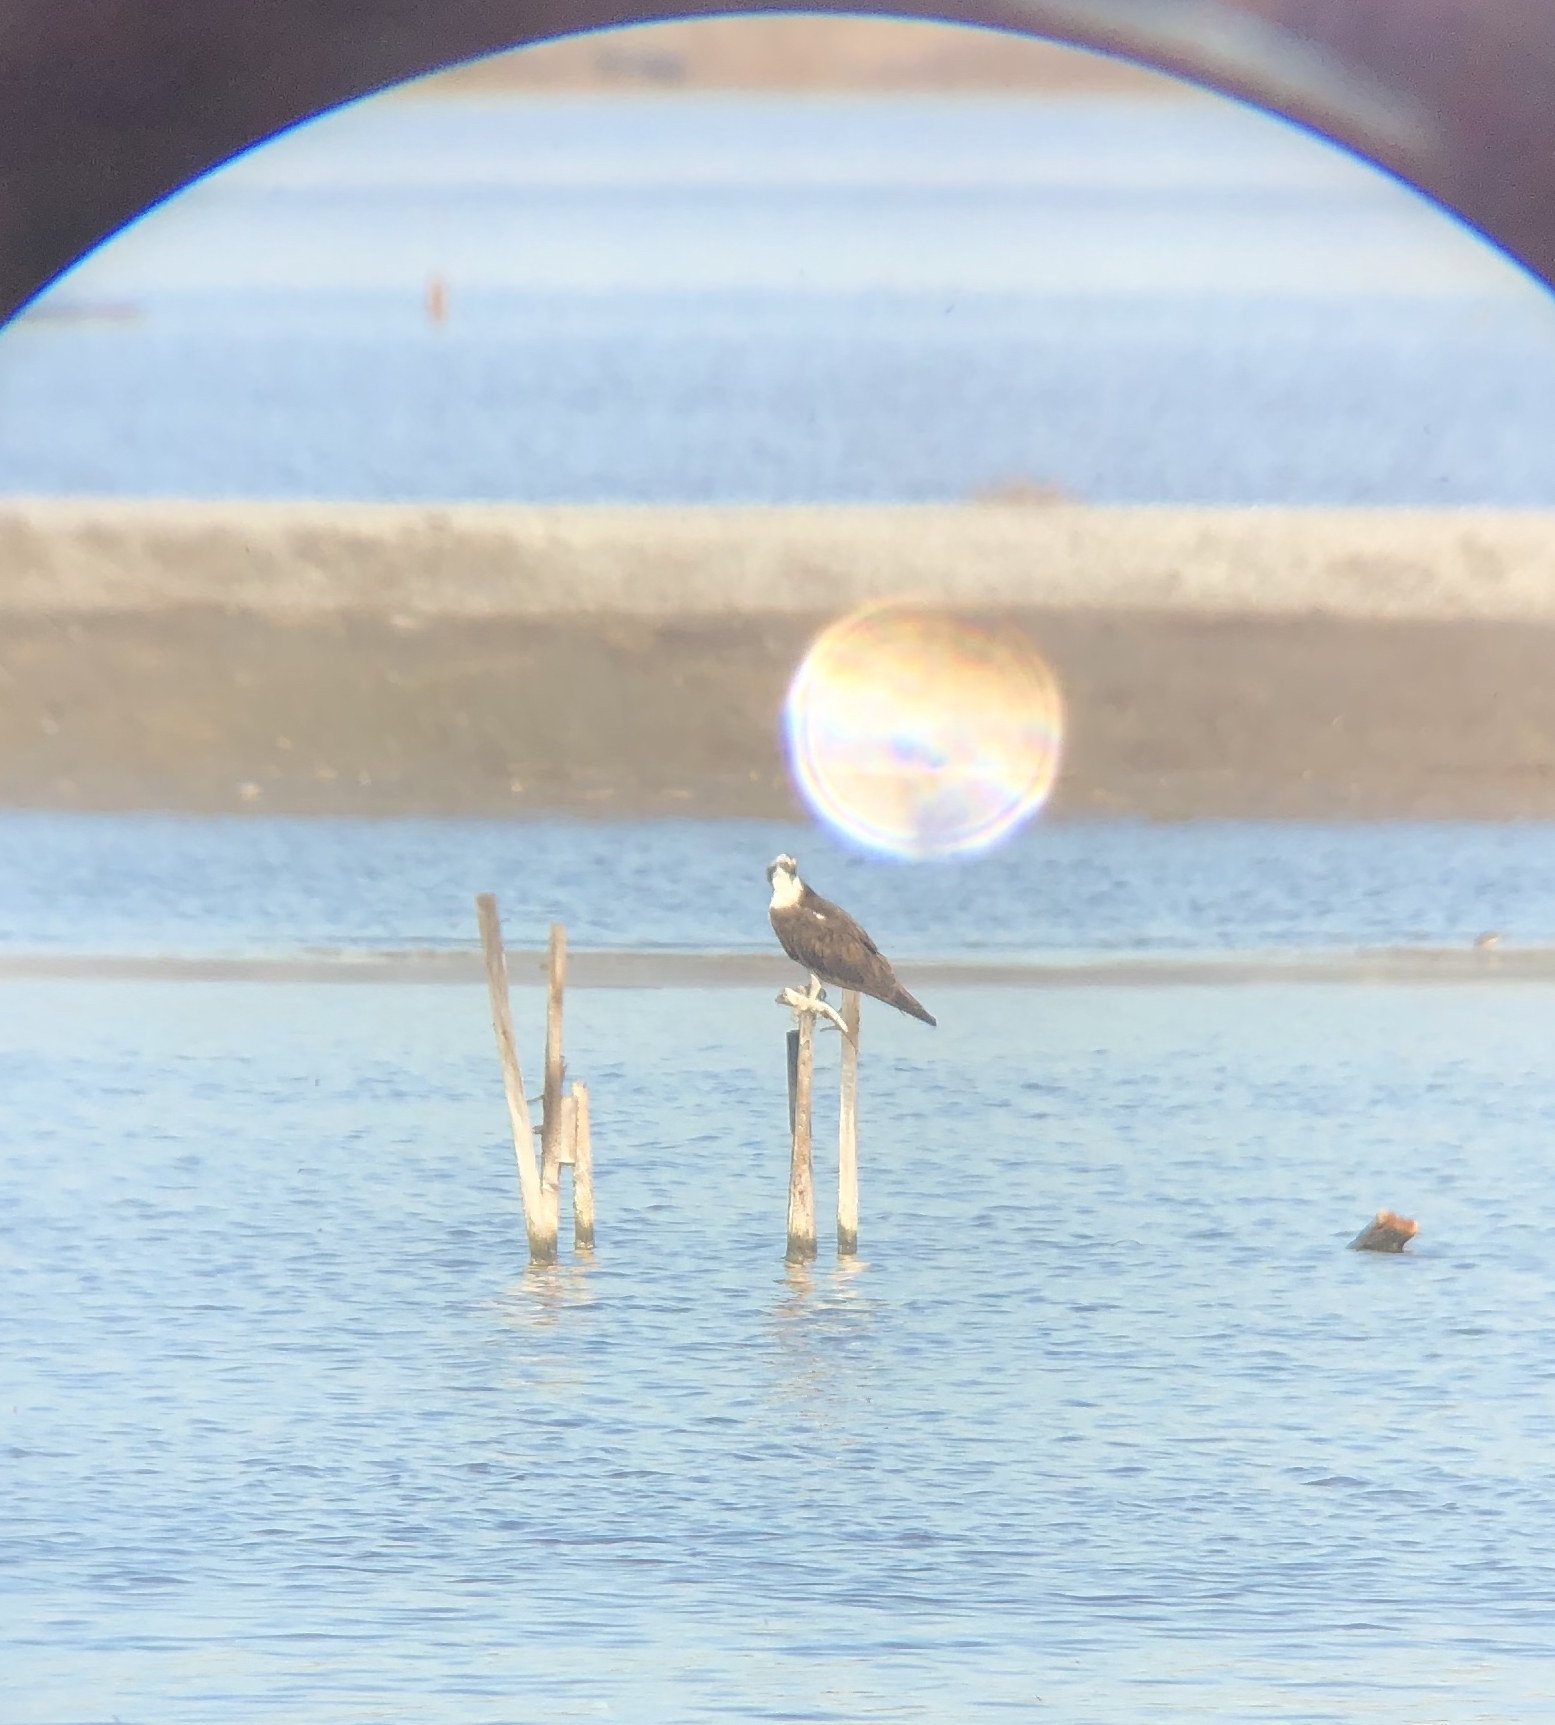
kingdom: Animalia
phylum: Chordata
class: Aves
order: Accipitriformes
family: Pandionidae
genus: Pandion
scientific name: Pandion haliaetus
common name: Osprey
